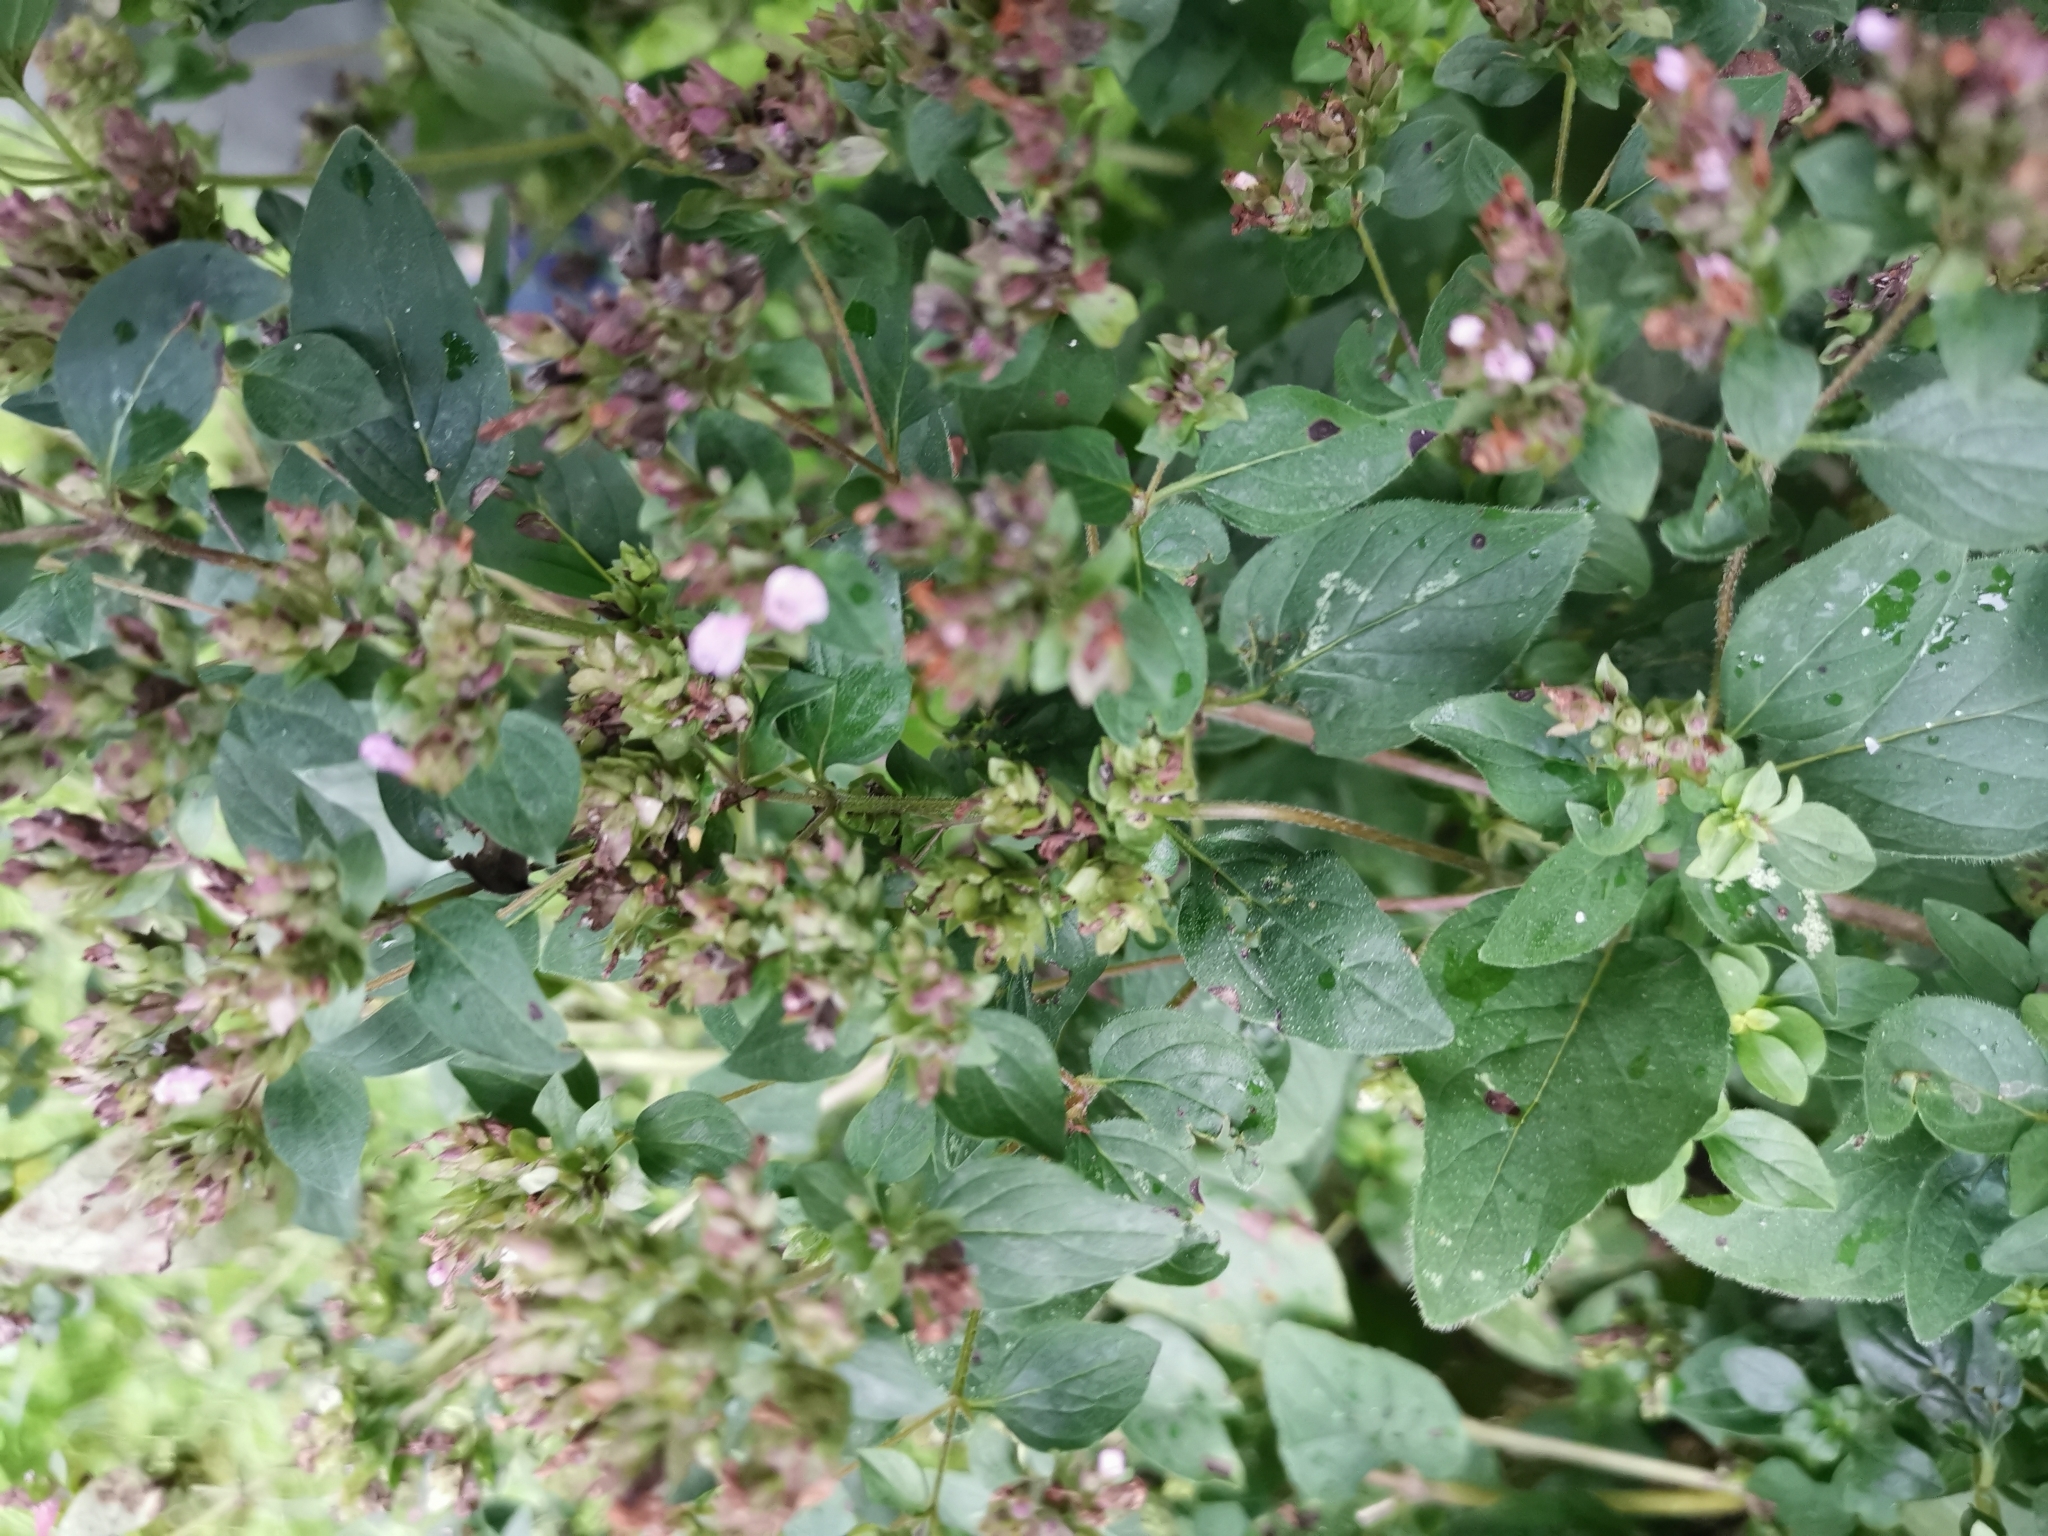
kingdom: Plantae
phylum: Tracheophyta
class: Magnoliopsida
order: Lamiales
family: Lamiaceae
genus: Origanum
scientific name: Origanum vulgare
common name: Wild marjoram
